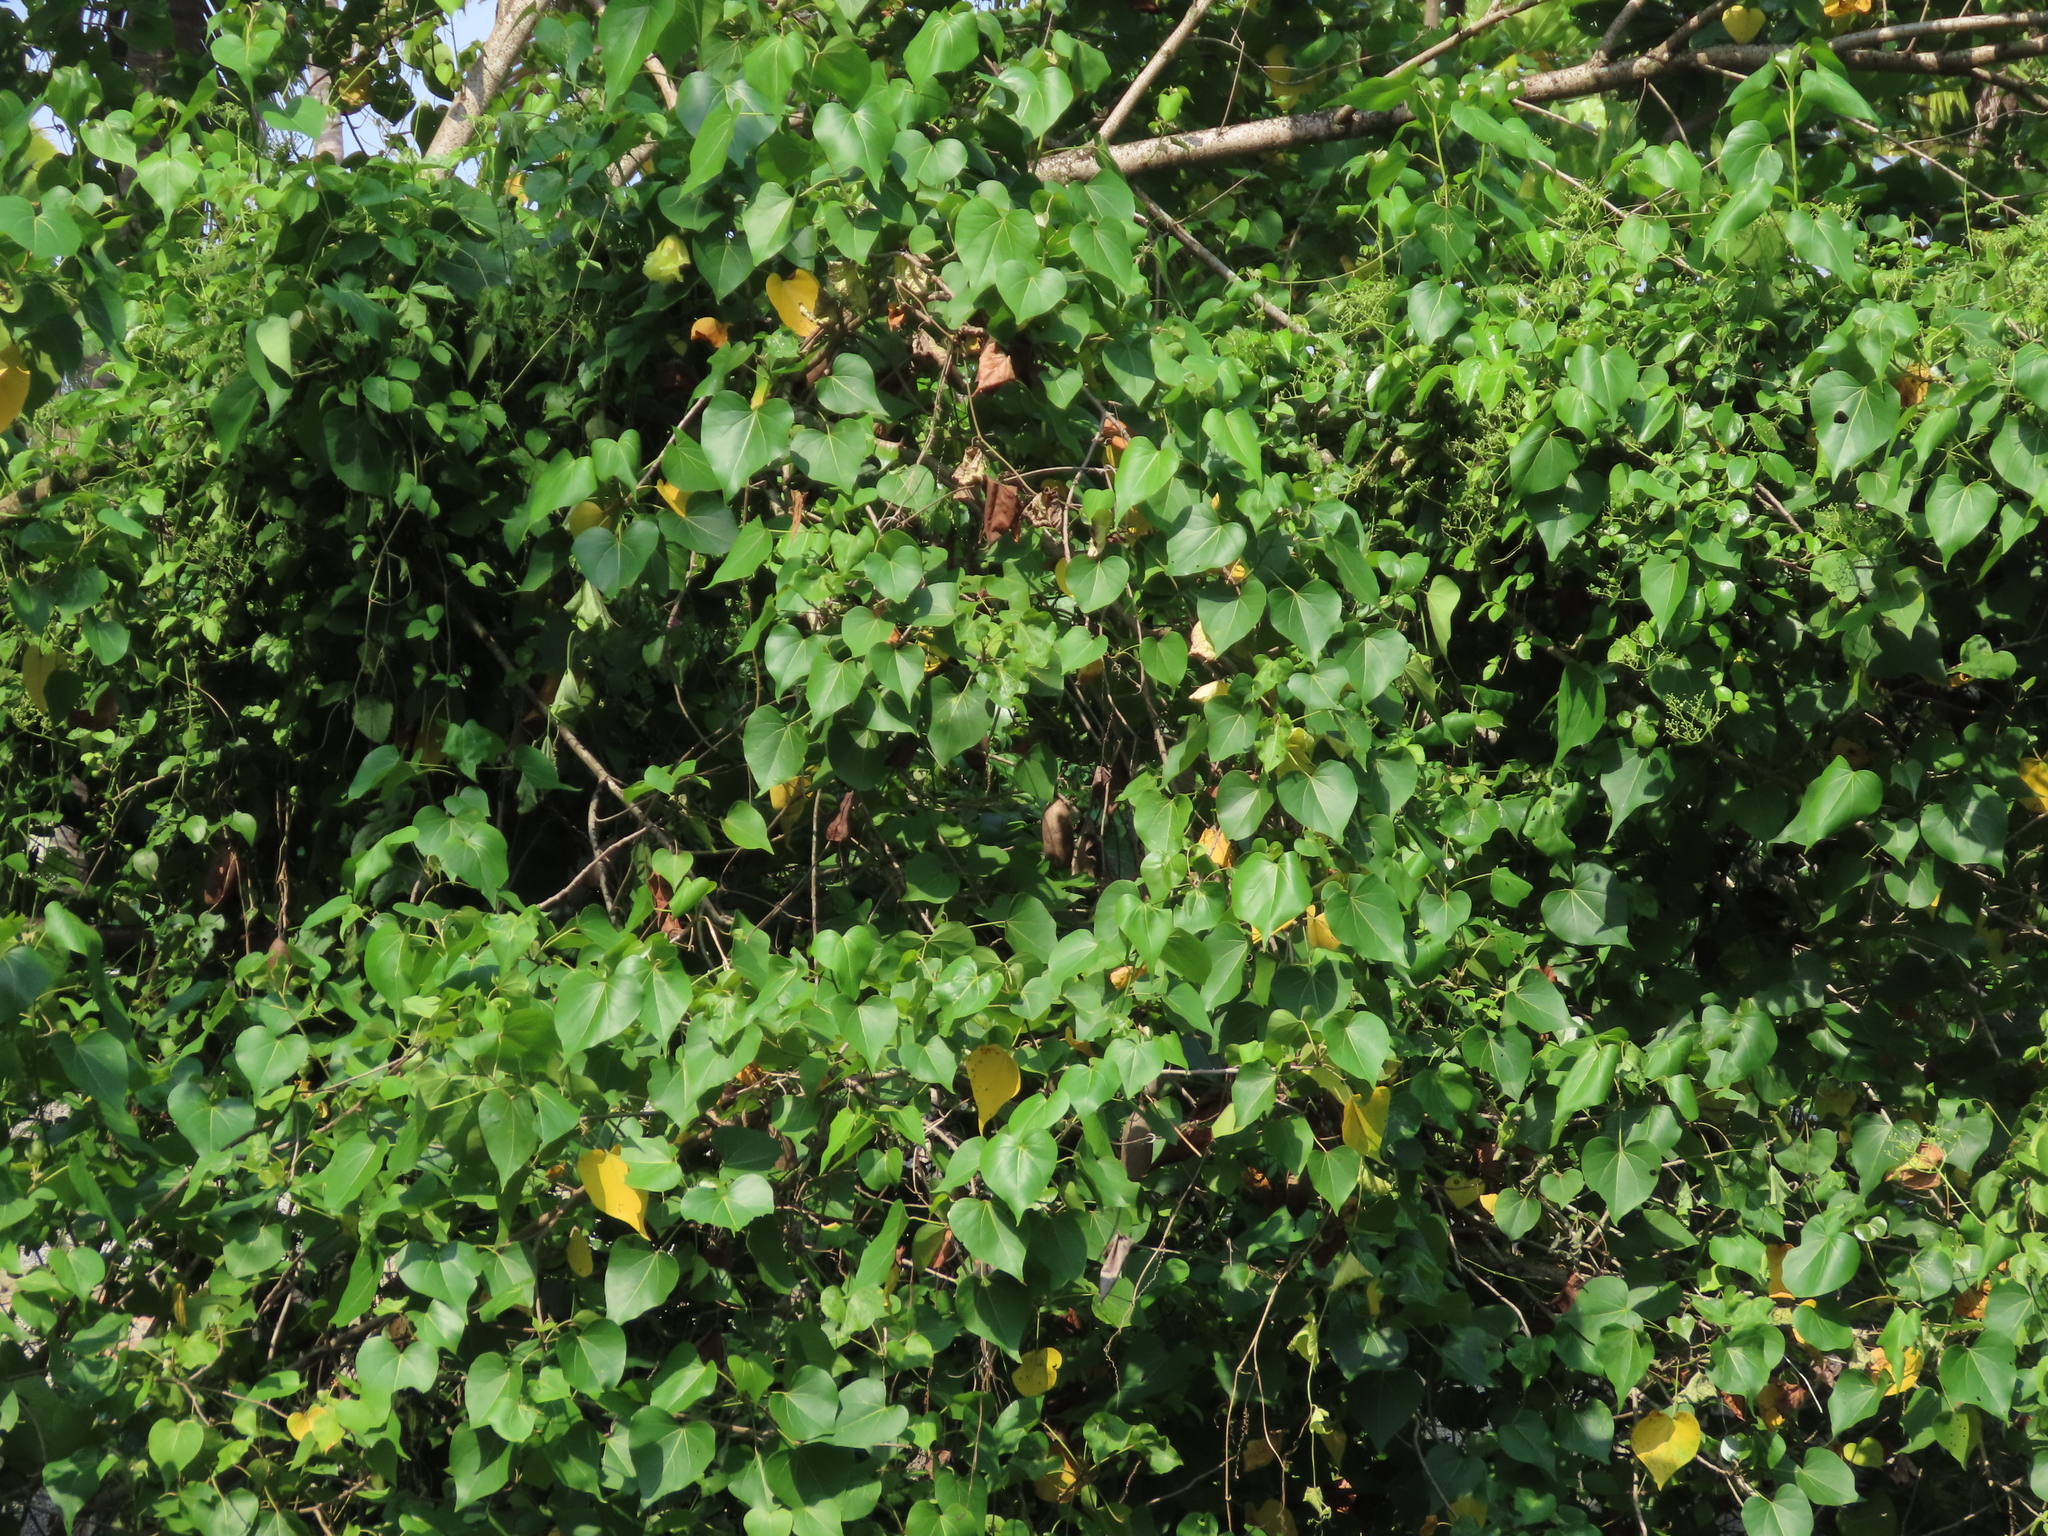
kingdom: Plantae
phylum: Tracheophyta
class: Magnoliopsida
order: Malvales
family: Malvaceae
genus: Thespesia
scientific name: Thespesia populnea
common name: Seaside mahoe
